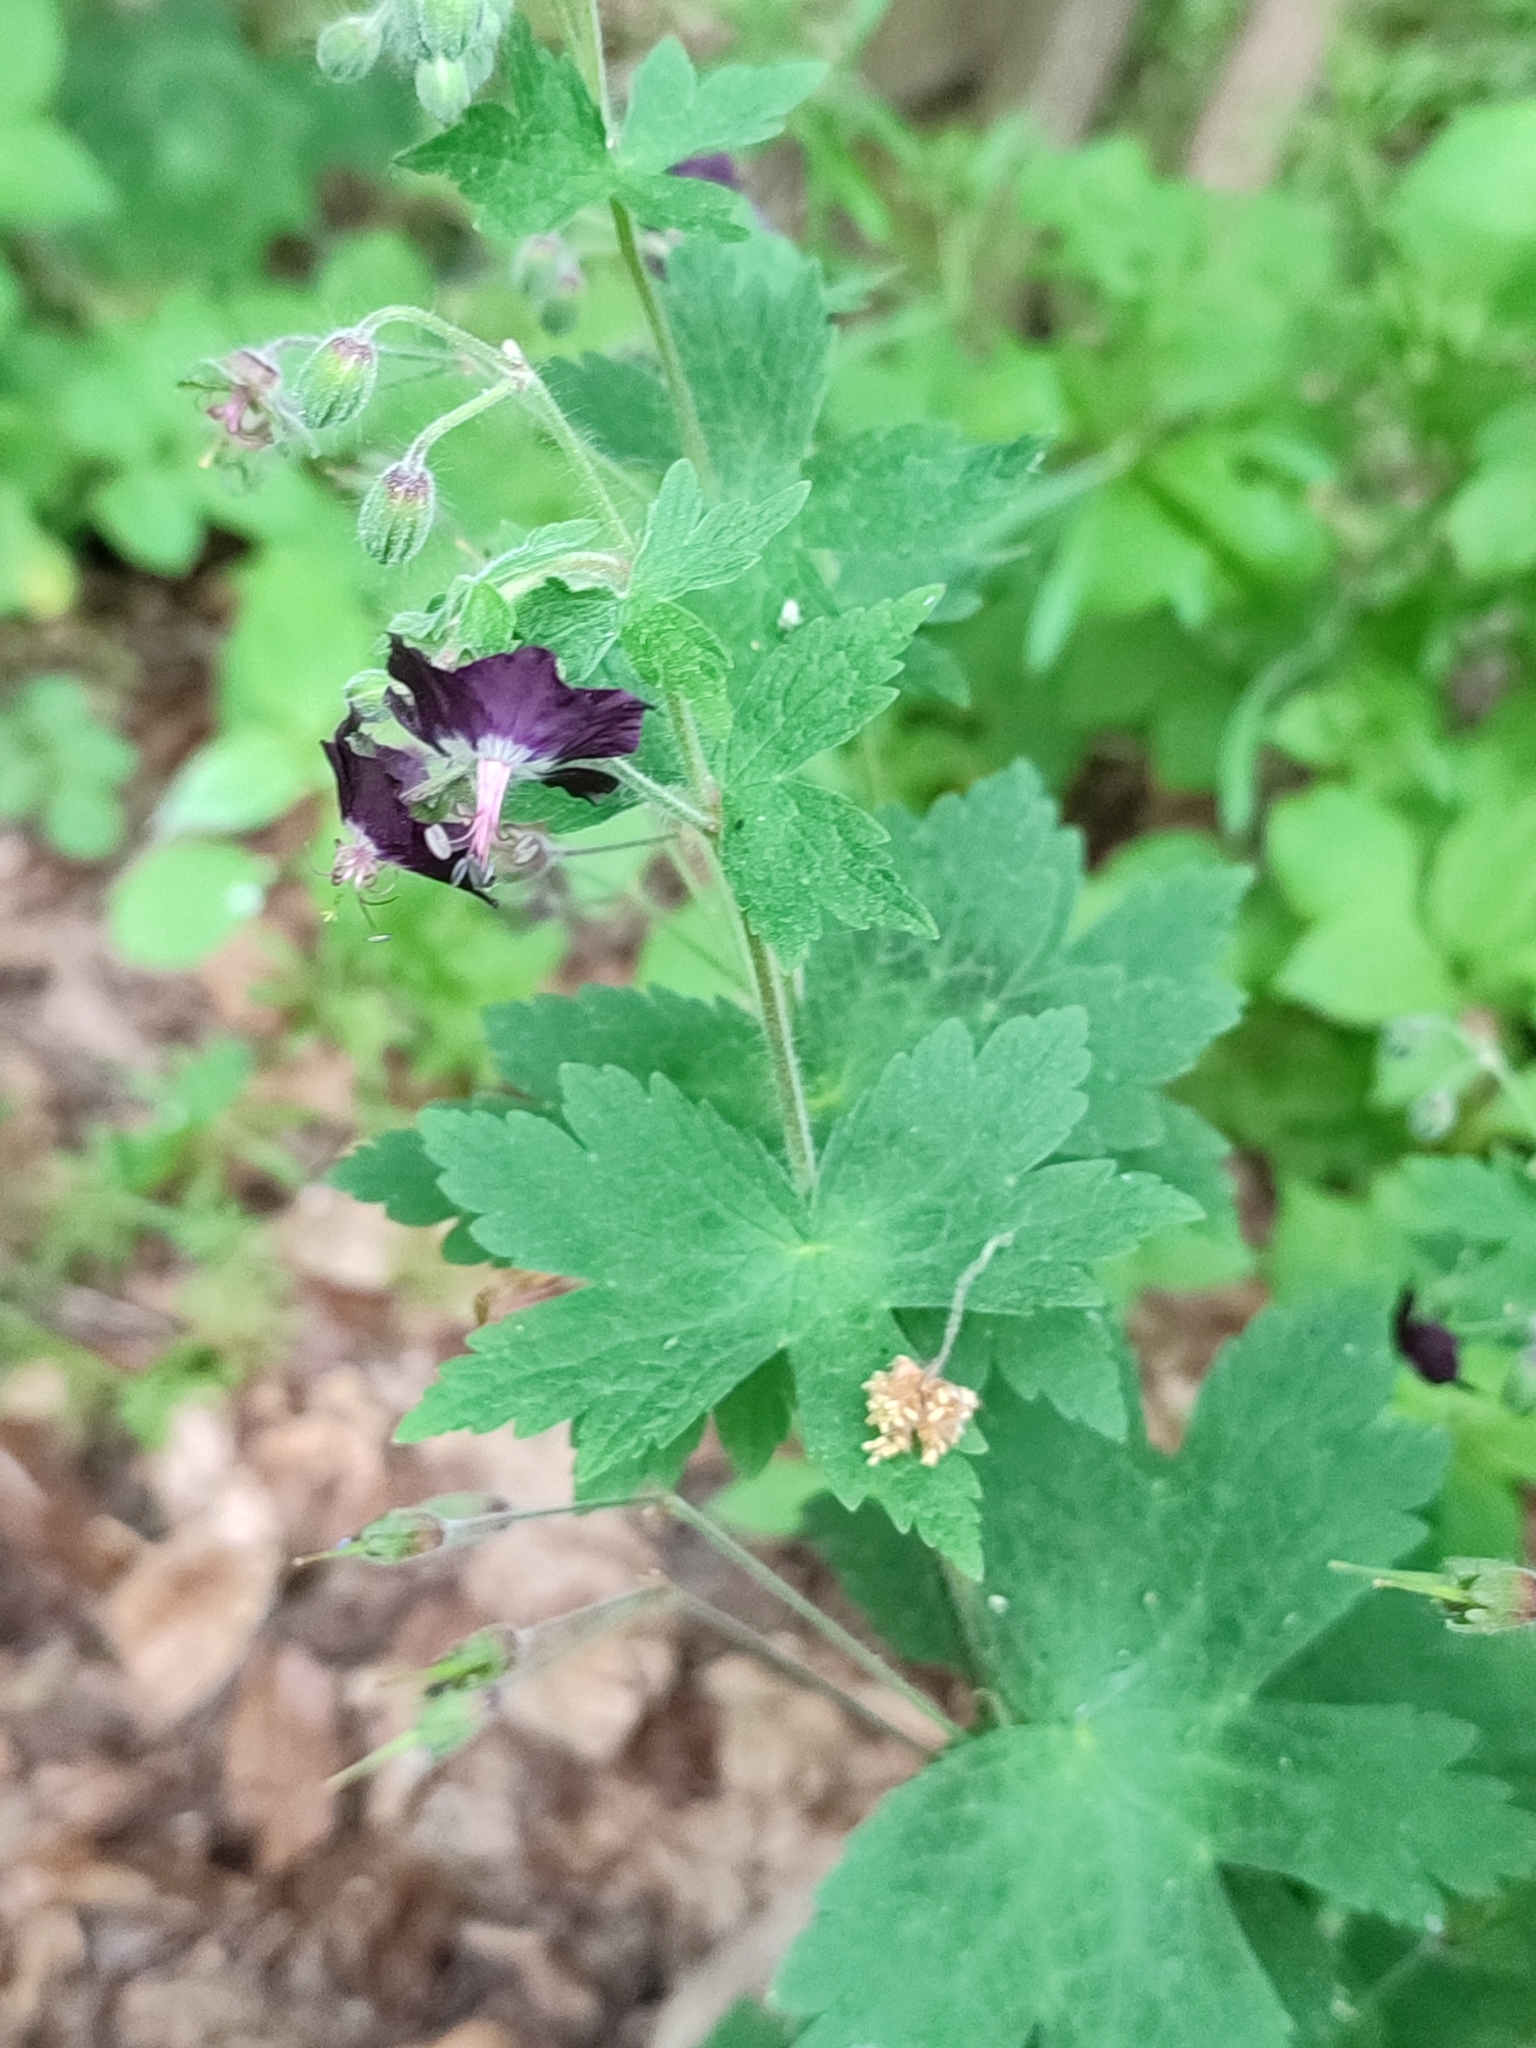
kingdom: Plantae
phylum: Tracheophyta
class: Magnoliopsida
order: Geraniales
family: Geraniaceae
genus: Geranium
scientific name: Geranium phaeum
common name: Dusky crane's-bill
